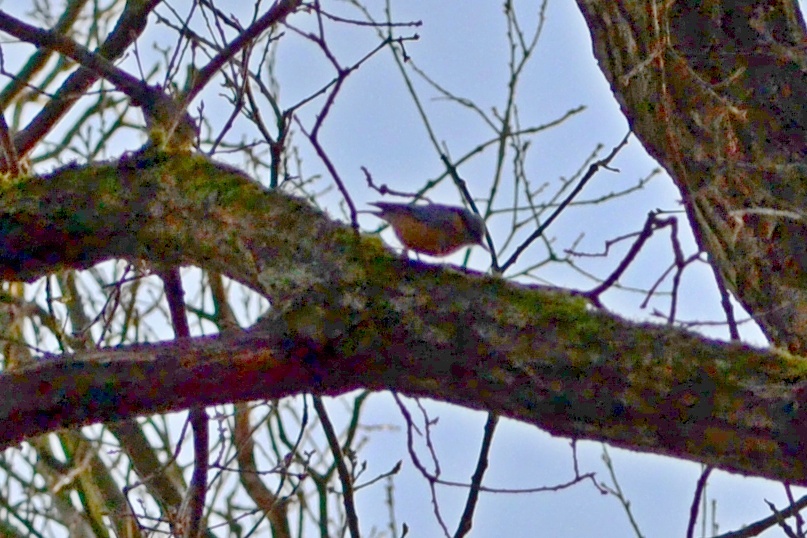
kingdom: Animalia
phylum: Chordata
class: Aves
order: Passeriformes
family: Sittidae
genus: Sitta
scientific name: Sitta europaea
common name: Eurasian nuthatch
